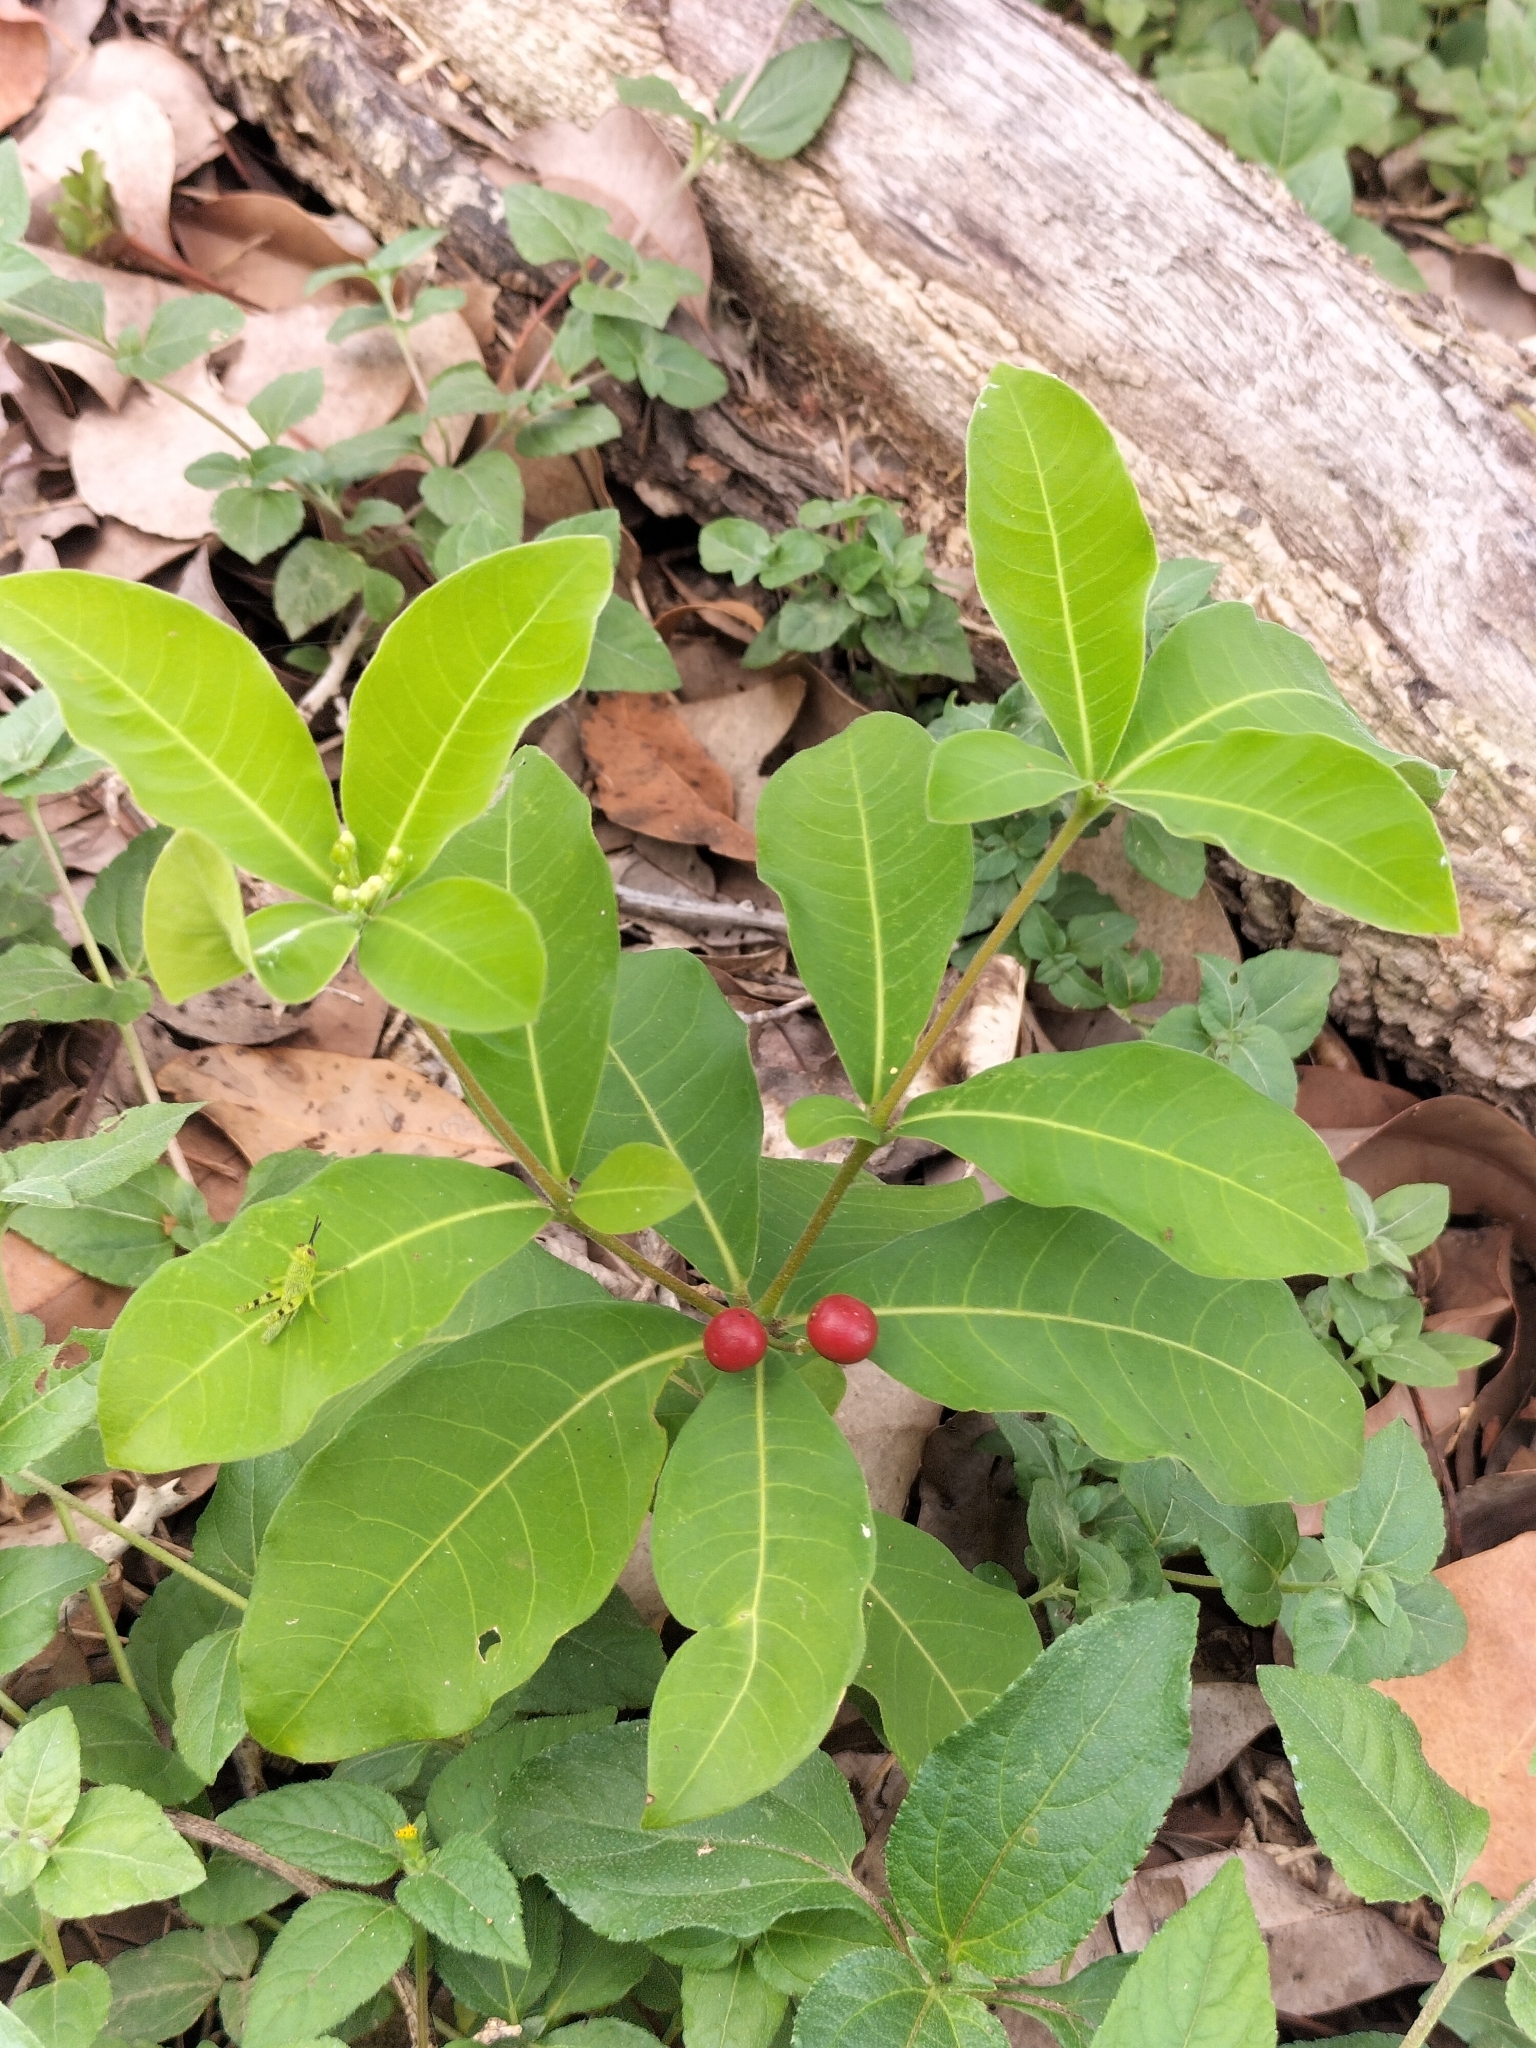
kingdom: Plantae
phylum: Tracheophyta
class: Magnoliopsida
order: Gentianales
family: Apocynaceae
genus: Rauvolfia
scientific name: Rauvolfia tetraphylla
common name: Four-leaf devil-pepper
